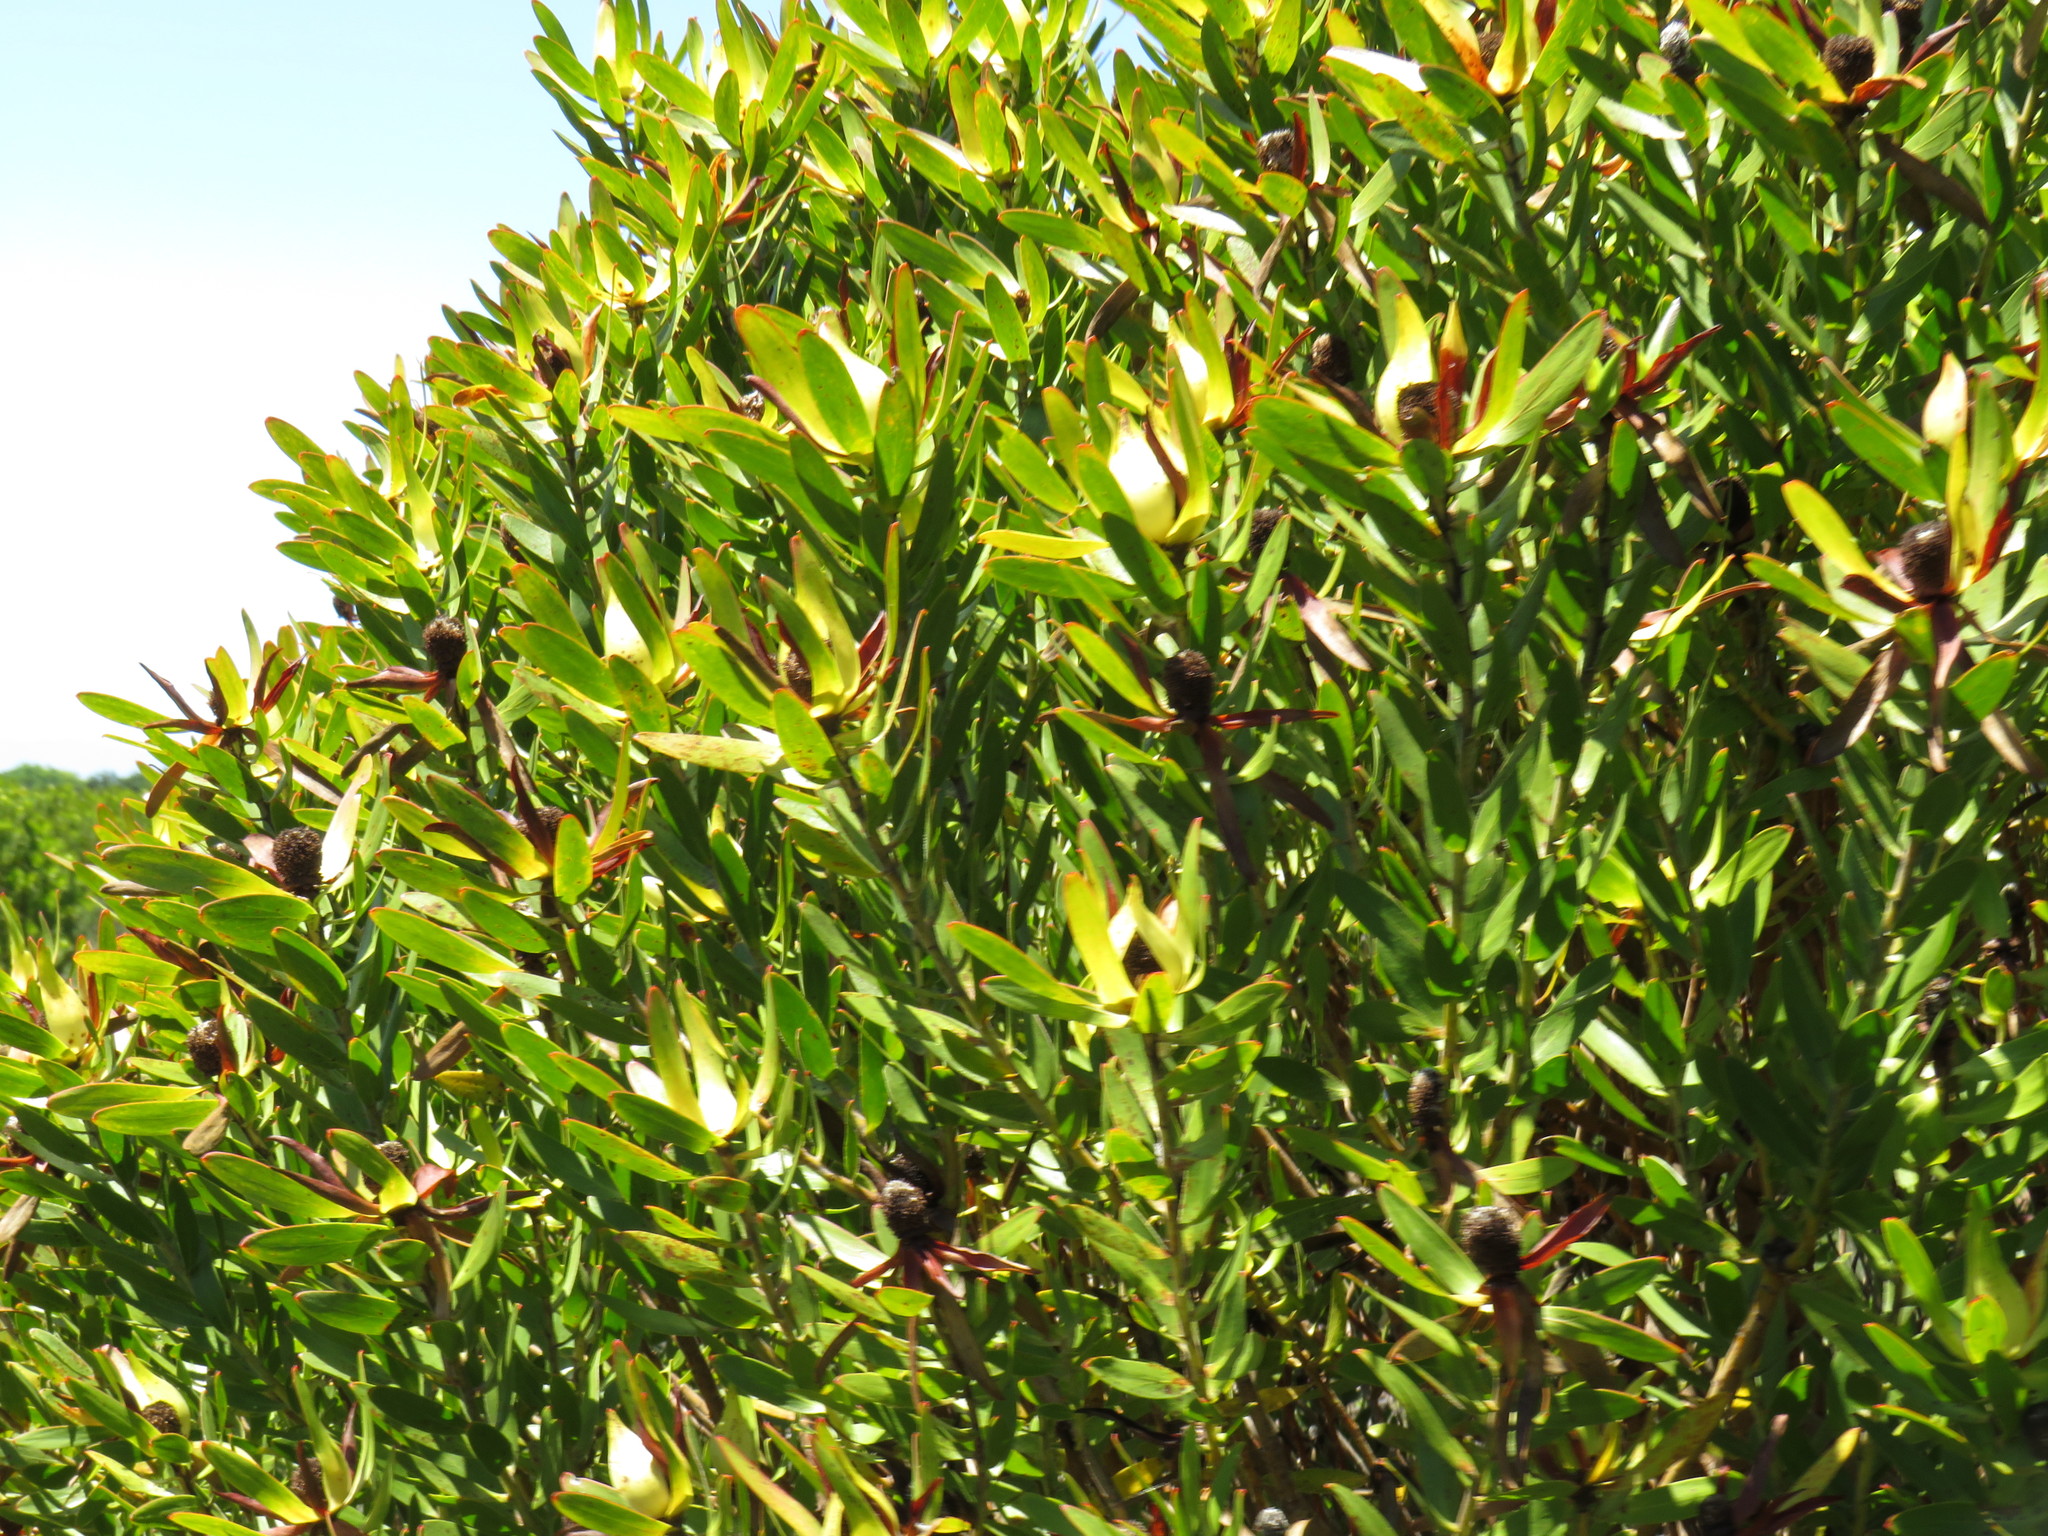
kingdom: Plantae
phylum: Tracheophyta
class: Magnoliopsida
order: Proteales
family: Proteaceae
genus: Leucadendron
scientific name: Leucadendron laureolum
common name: Golden sunshinebush
